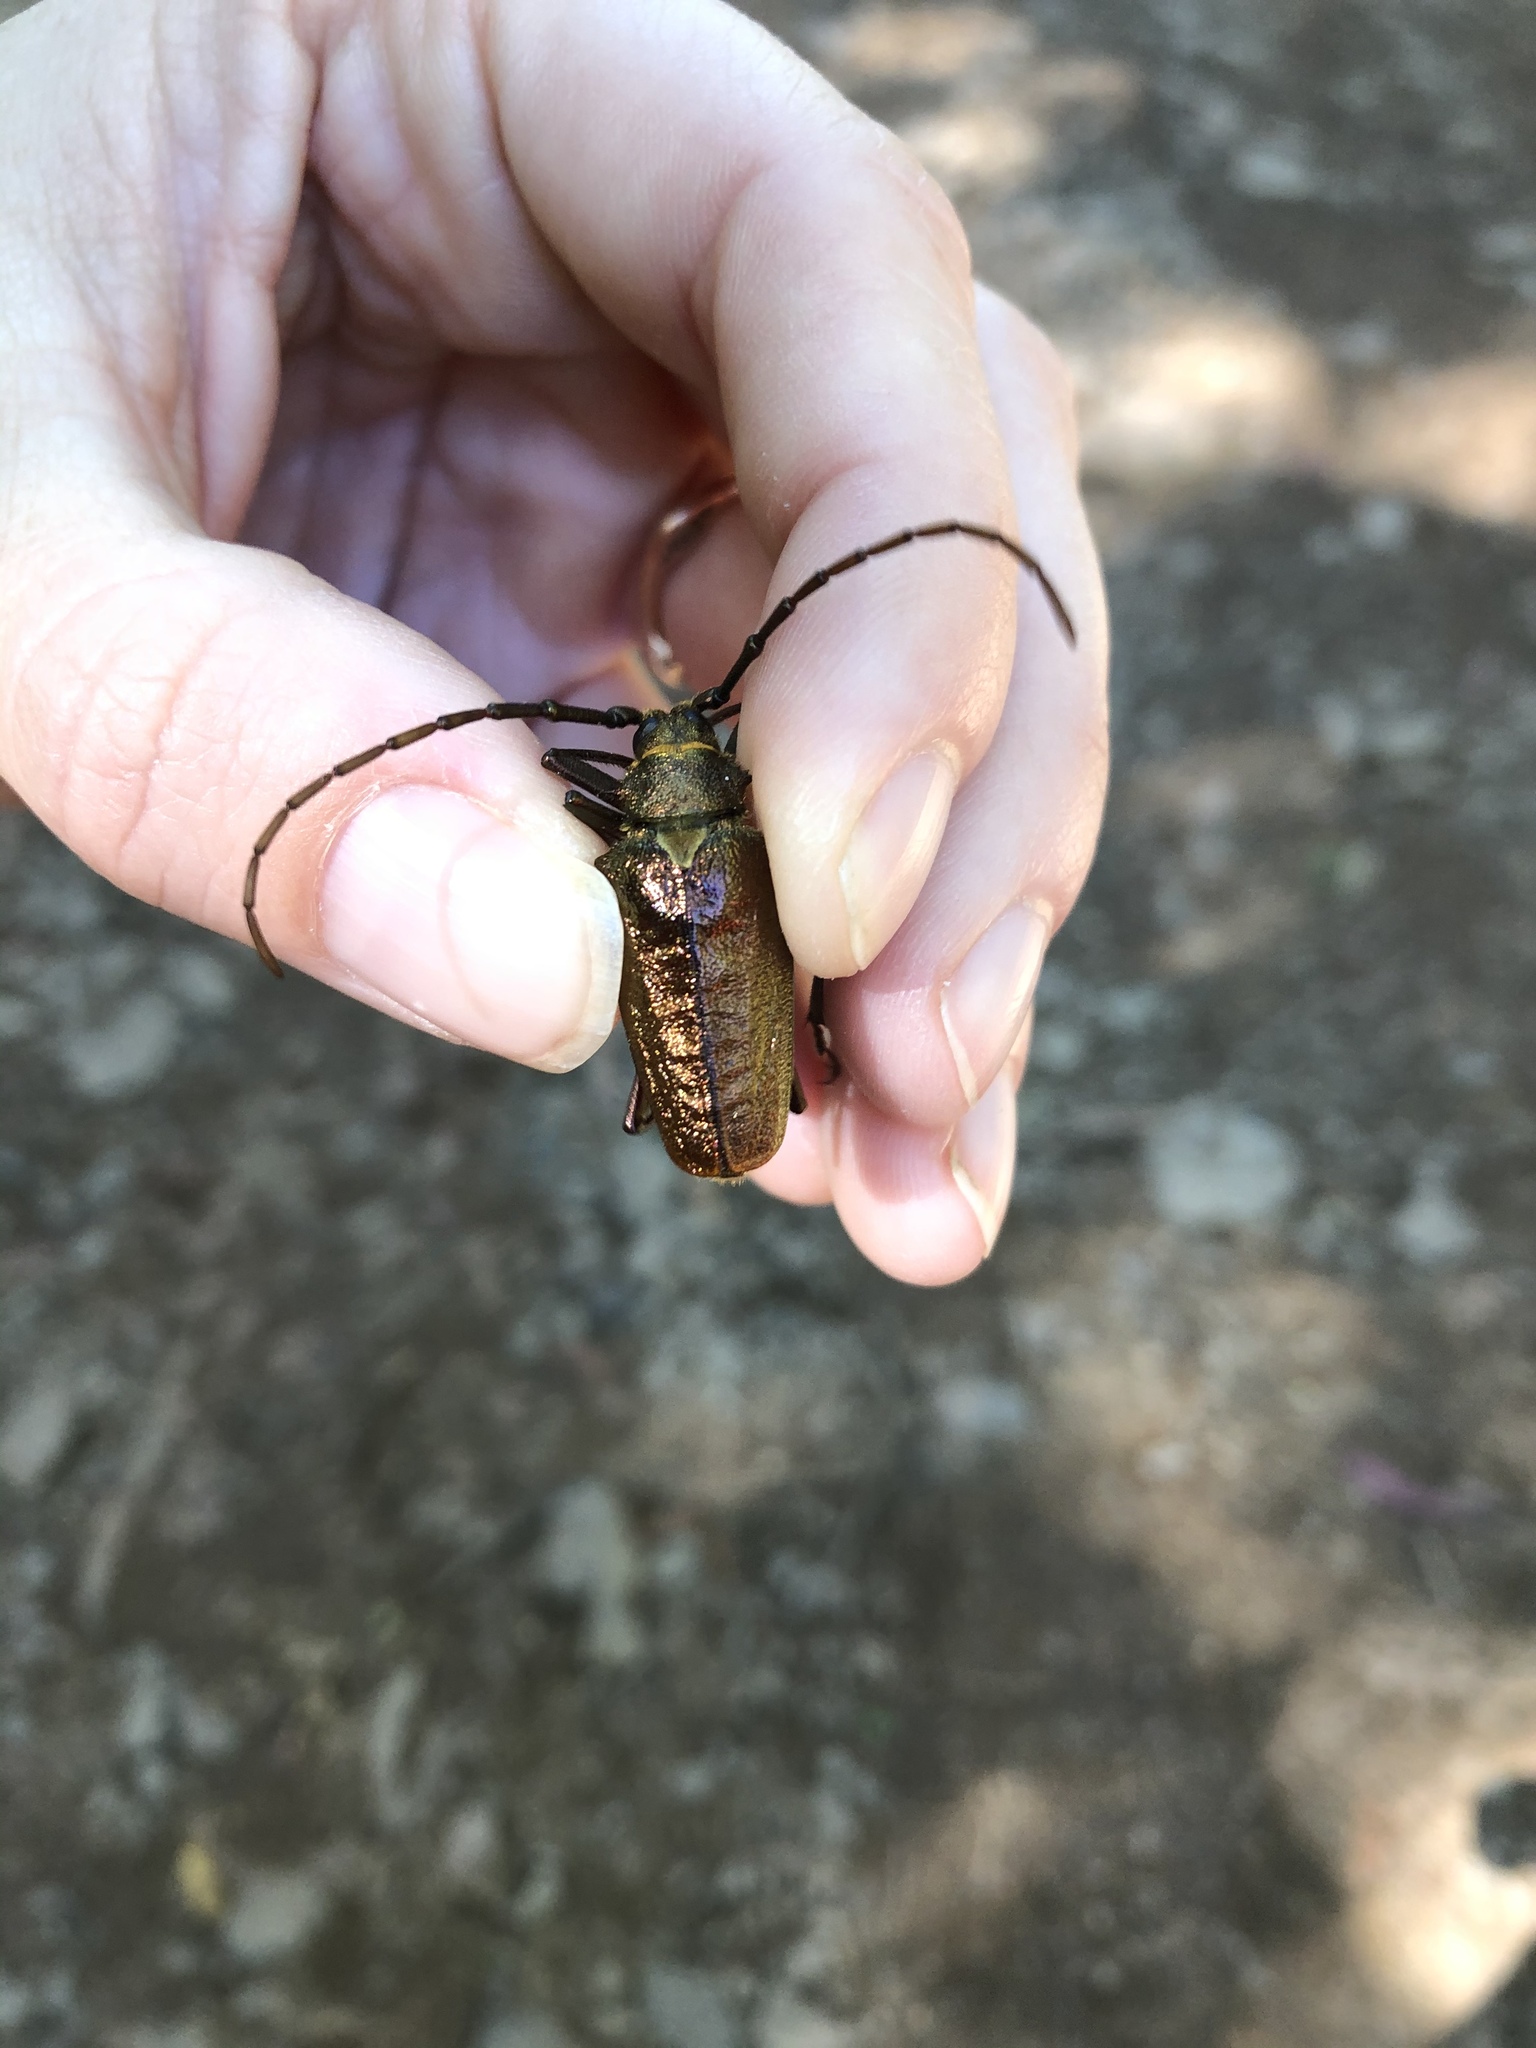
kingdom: Animalia
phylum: Arthropoda
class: Insecta
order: Coleoptera
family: Cerambycidae
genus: Scatopyrodes
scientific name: Scatopyrodes trichostethus
